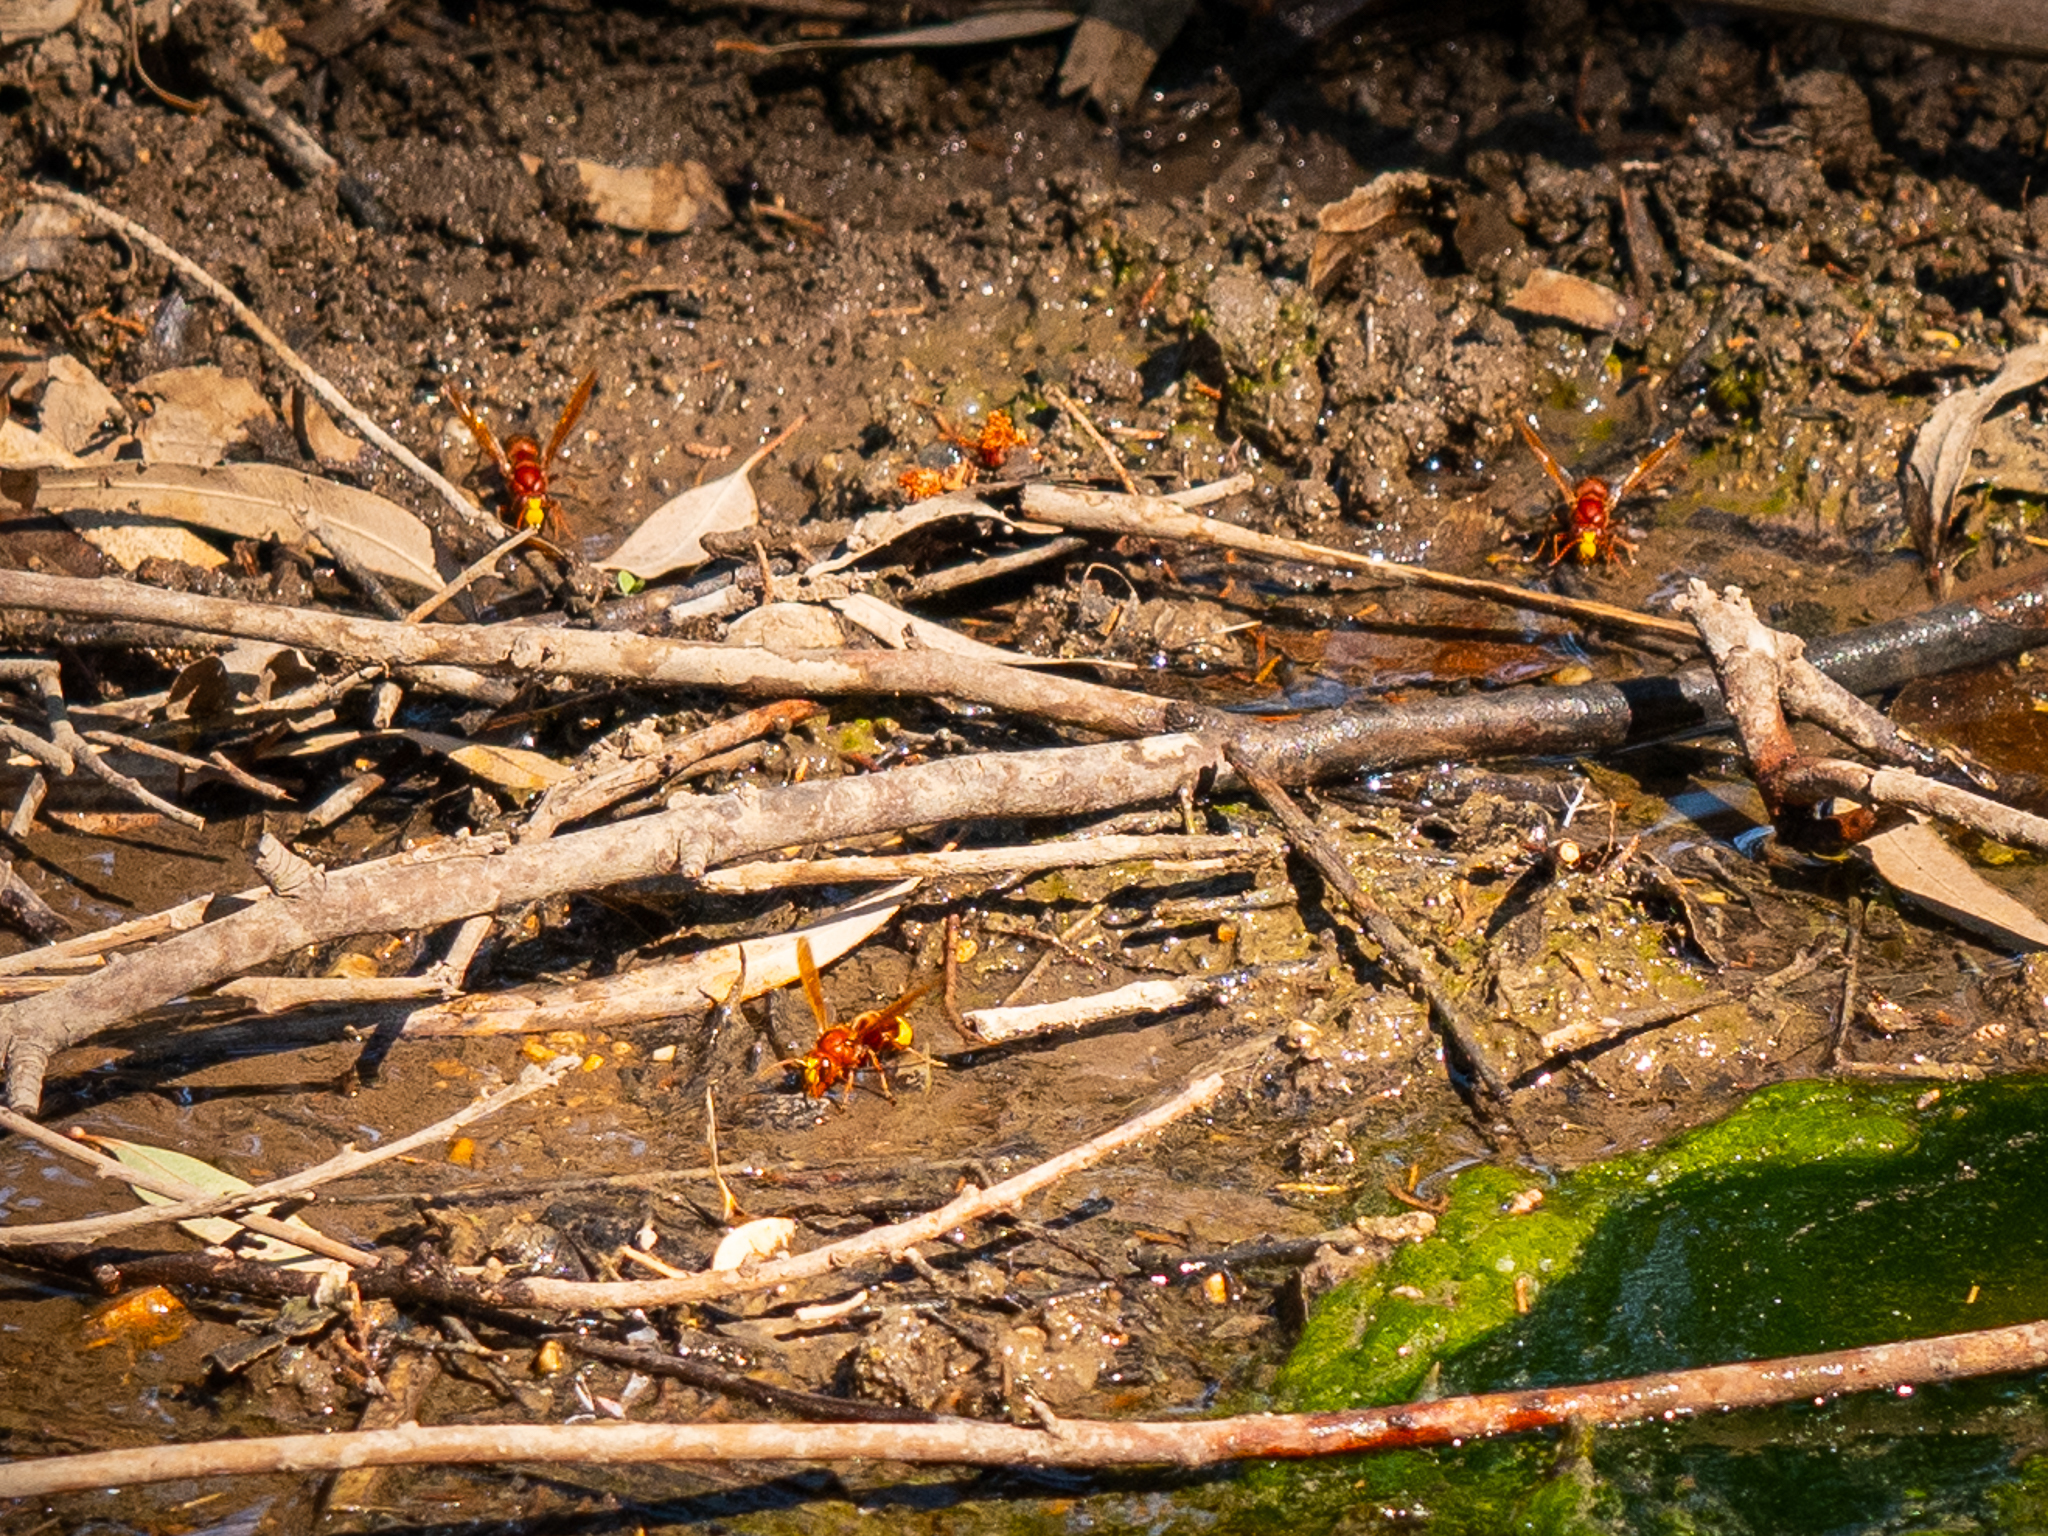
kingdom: Animalia
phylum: Arthropoda
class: Insecta
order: Hymenoptera
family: Vespidae
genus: Vespa
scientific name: Vespa orientalis
